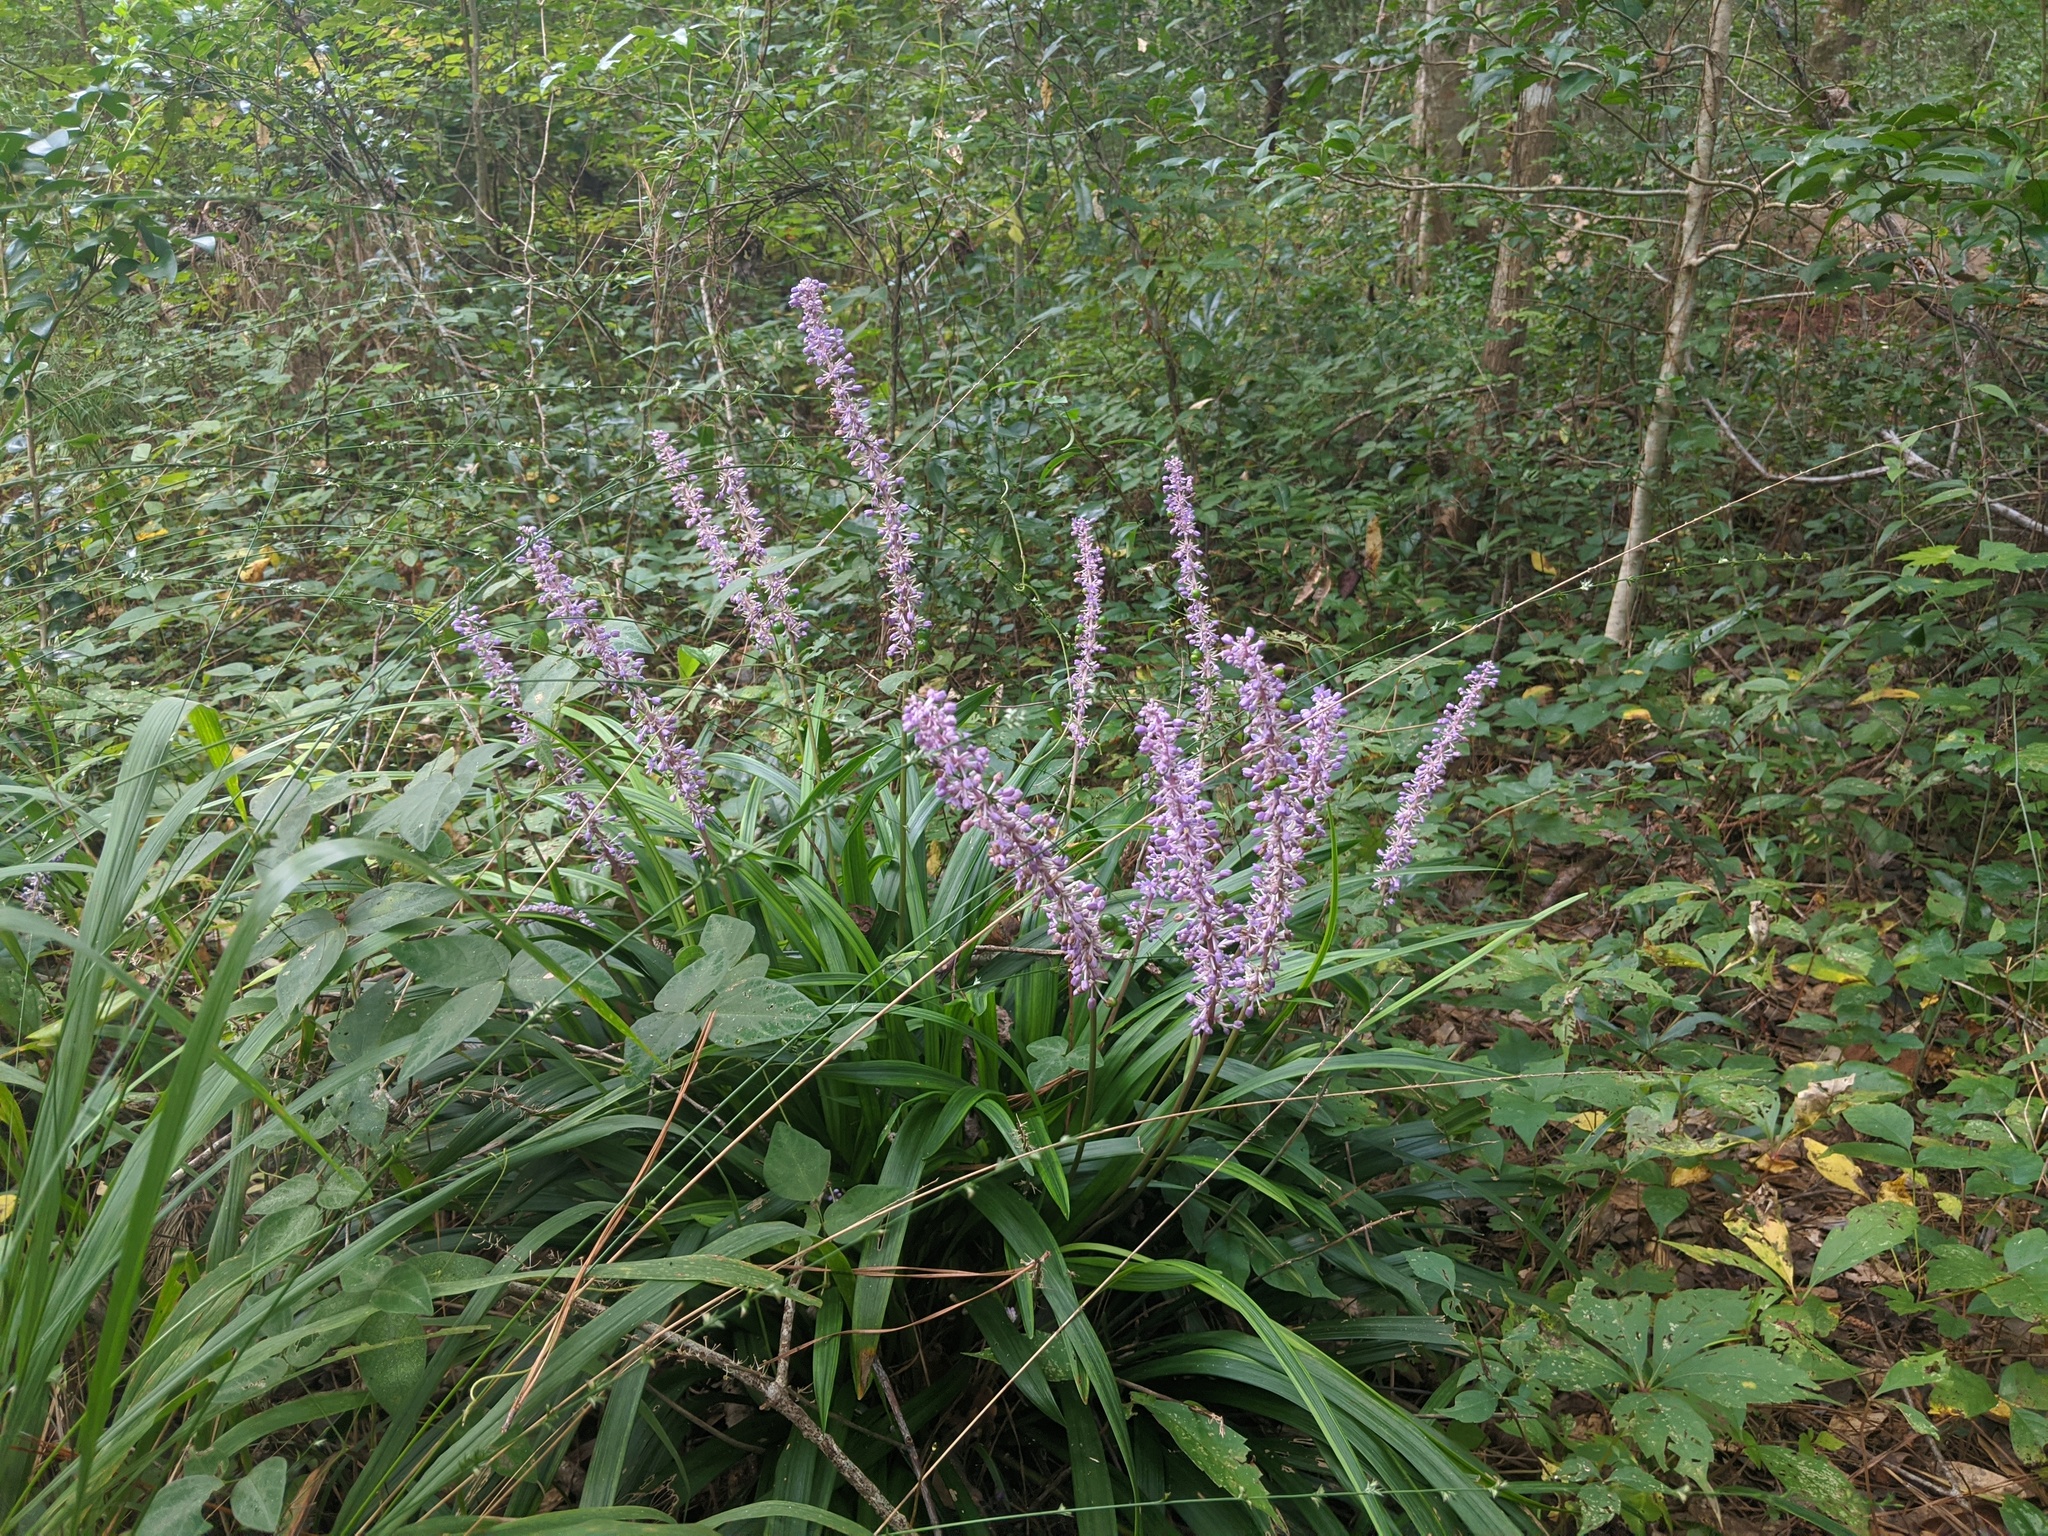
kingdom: Plantae
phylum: Tracheophyta
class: Liliopsida
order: Asparagales
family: Asparagaceae
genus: Liriope
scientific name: Liriope muscari
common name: Big blue lilyturf
